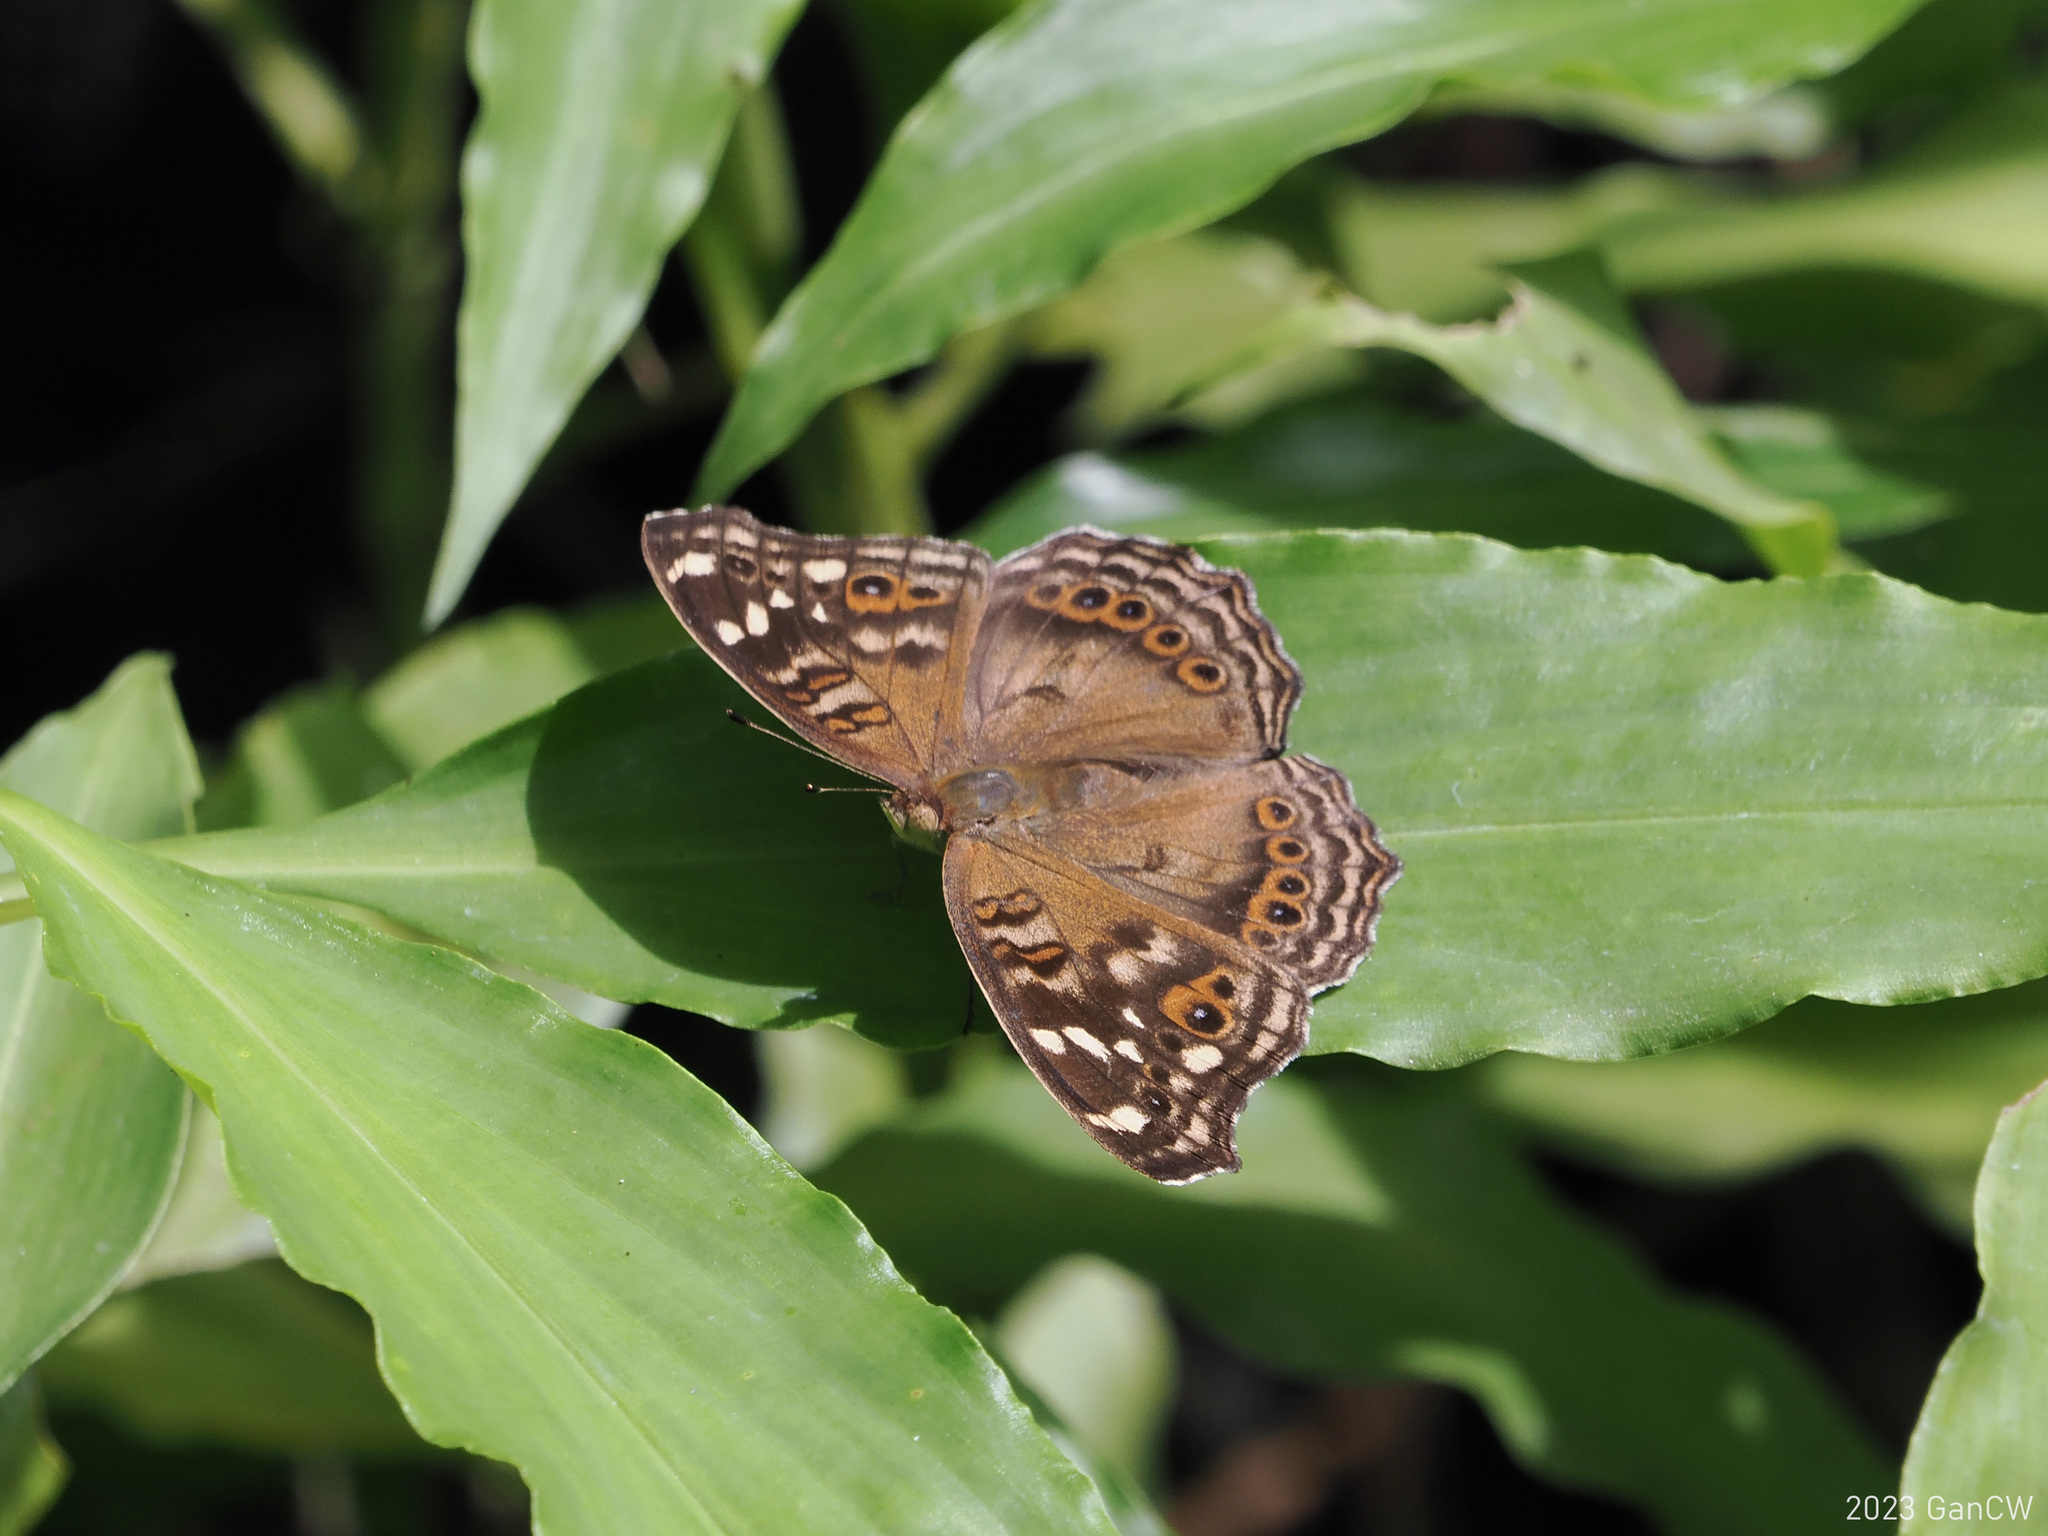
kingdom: Animalia
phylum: Arthropoda
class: Insecta
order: Lepidoptera
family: Nymphalidae
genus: Junonia
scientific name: Junonia erigone
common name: Northern argus
